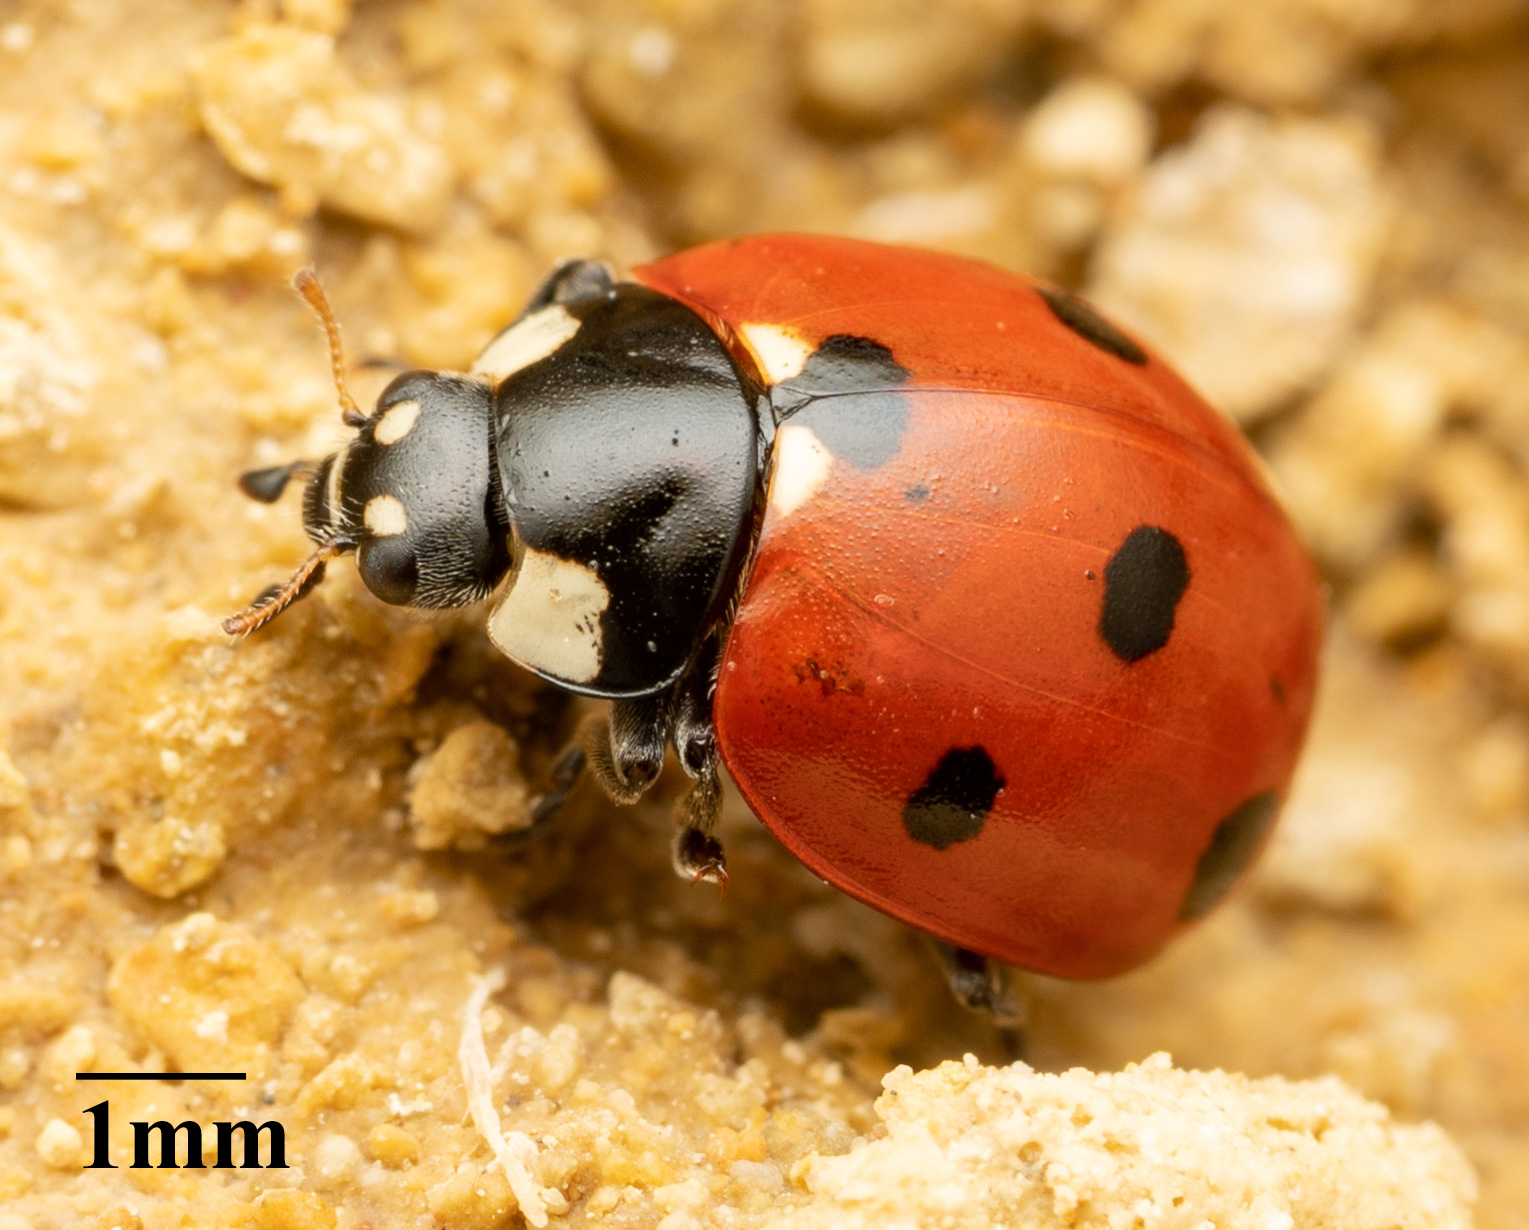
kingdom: Animalia
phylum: Arthropoda
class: Insecta
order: Coleoptera
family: Coccinellidae
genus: Coccinella
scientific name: Coccinella septempunctata
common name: Sevenspotted lady beetle
